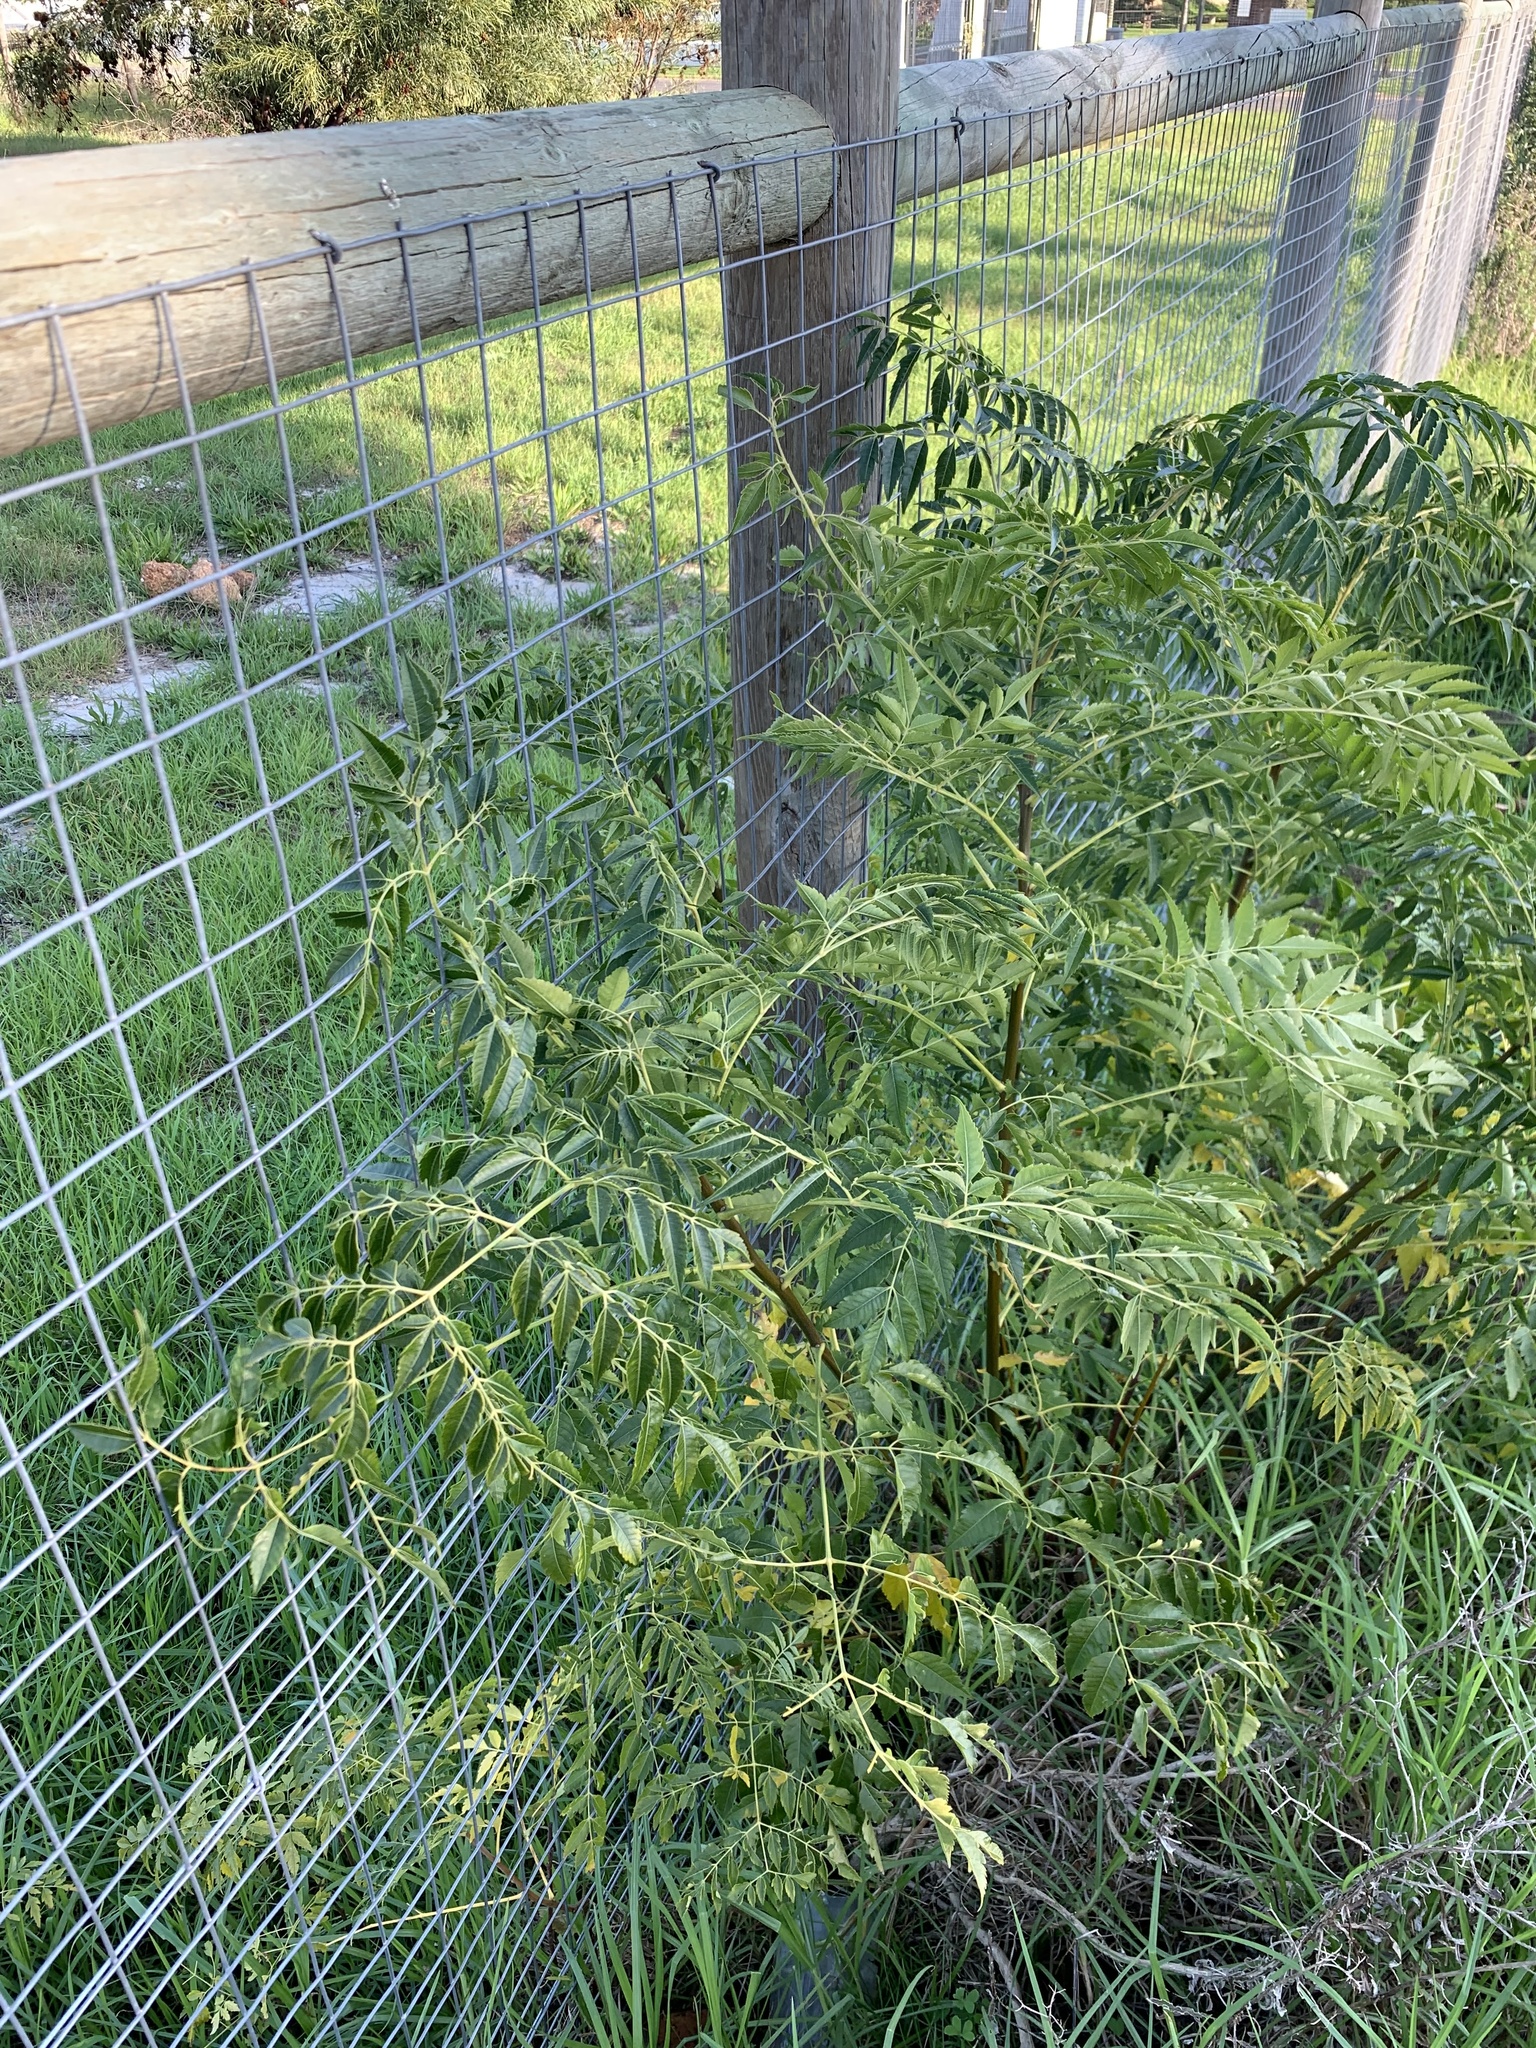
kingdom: Plantae
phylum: Tracheophyta
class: Magnoliopsida
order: Sapindales
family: Meliaceae
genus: Melia
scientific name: Melia azedarach
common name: Chinaberrytree
